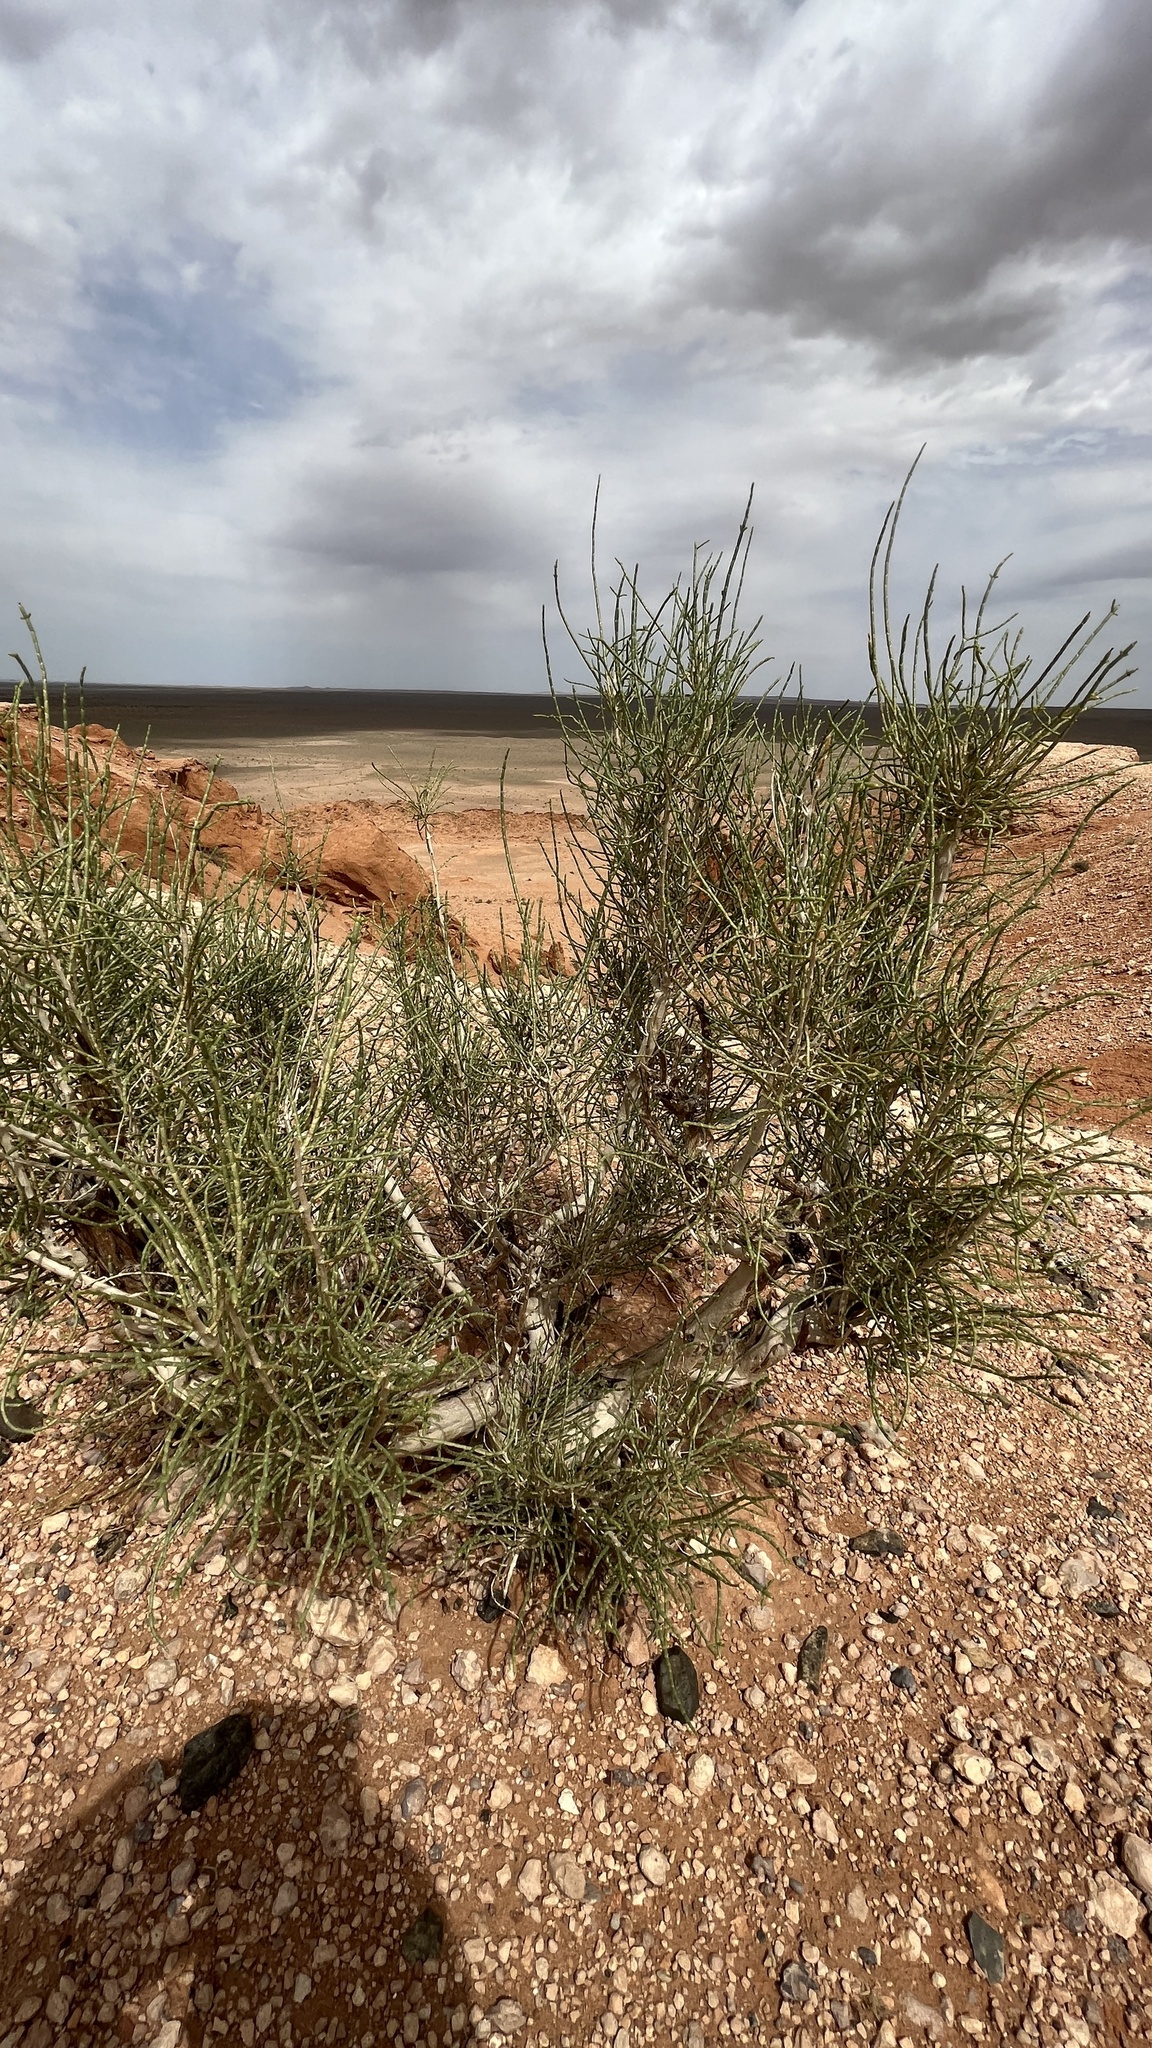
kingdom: Plantae
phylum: Tracheophyta
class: Magnoliopsida
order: Caryophyllales
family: Amaranthaceae
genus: Haloxylon
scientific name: Haloxylon ammodendron
